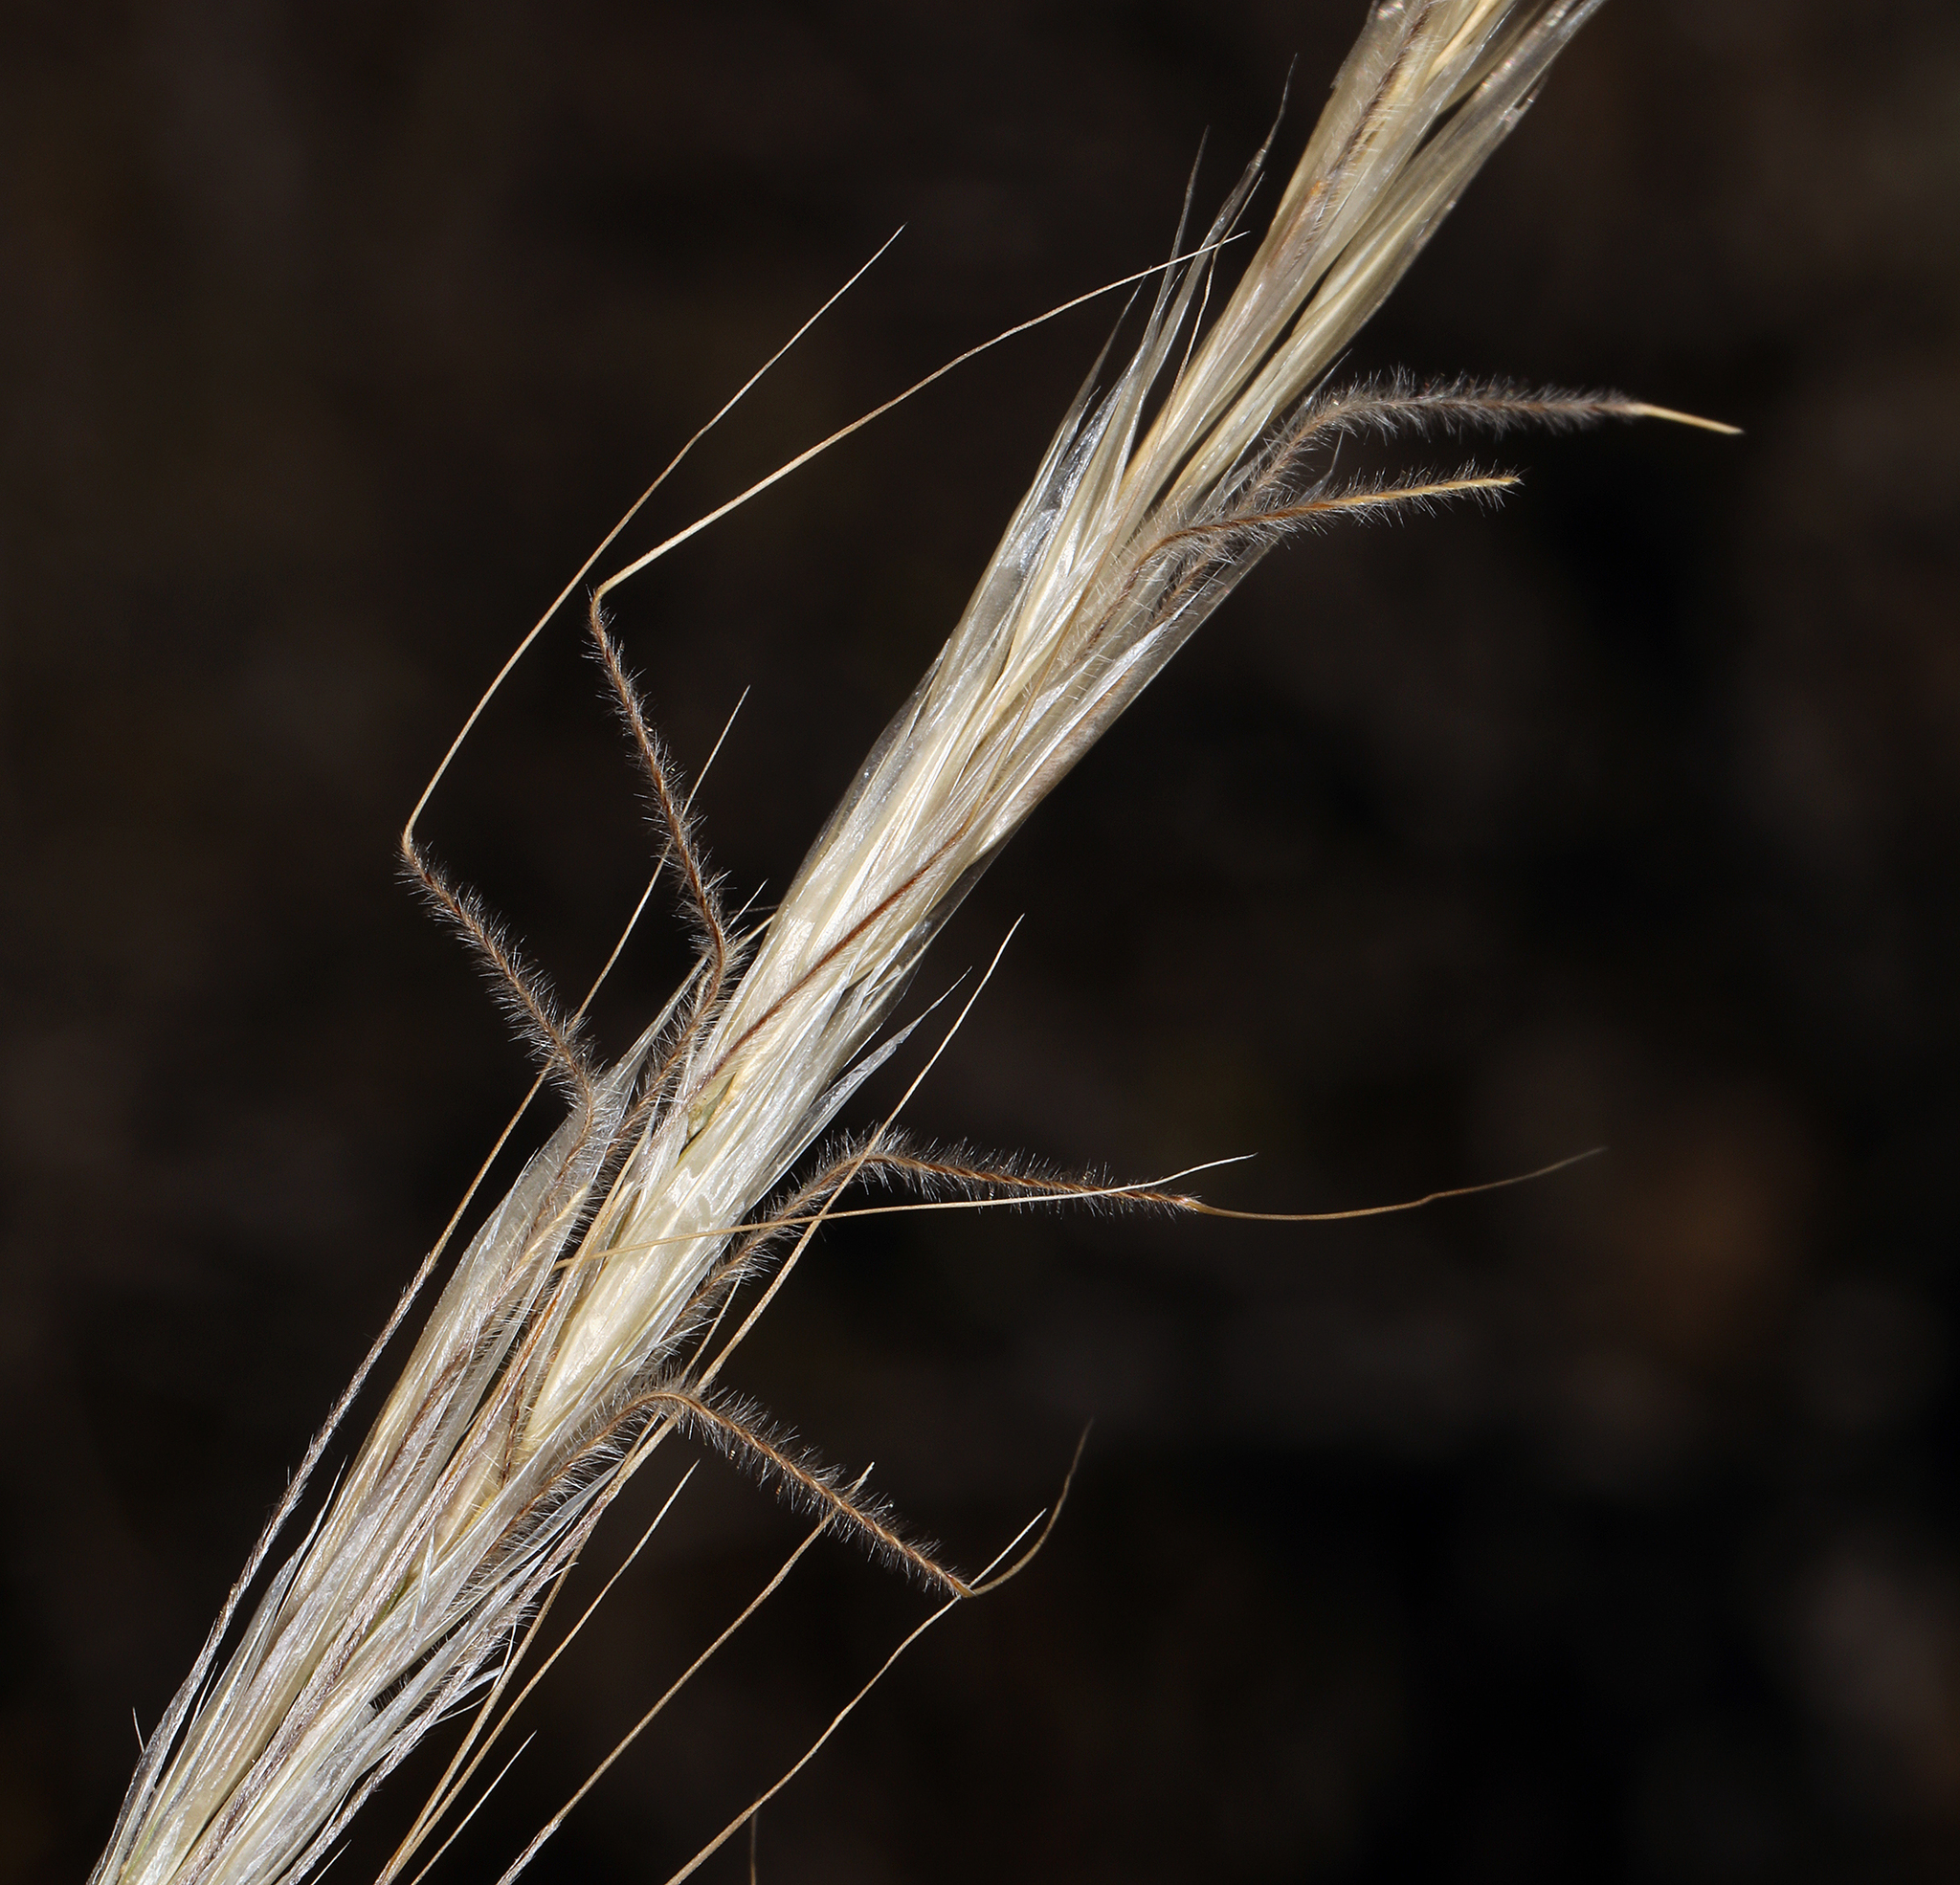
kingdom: Plantae
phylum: Tracheophyta
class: Liliopsida
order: Poales
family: Poaceae
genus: Eriocoma
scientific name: Eriocoma occidentalis
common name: Stiff needlegrass
